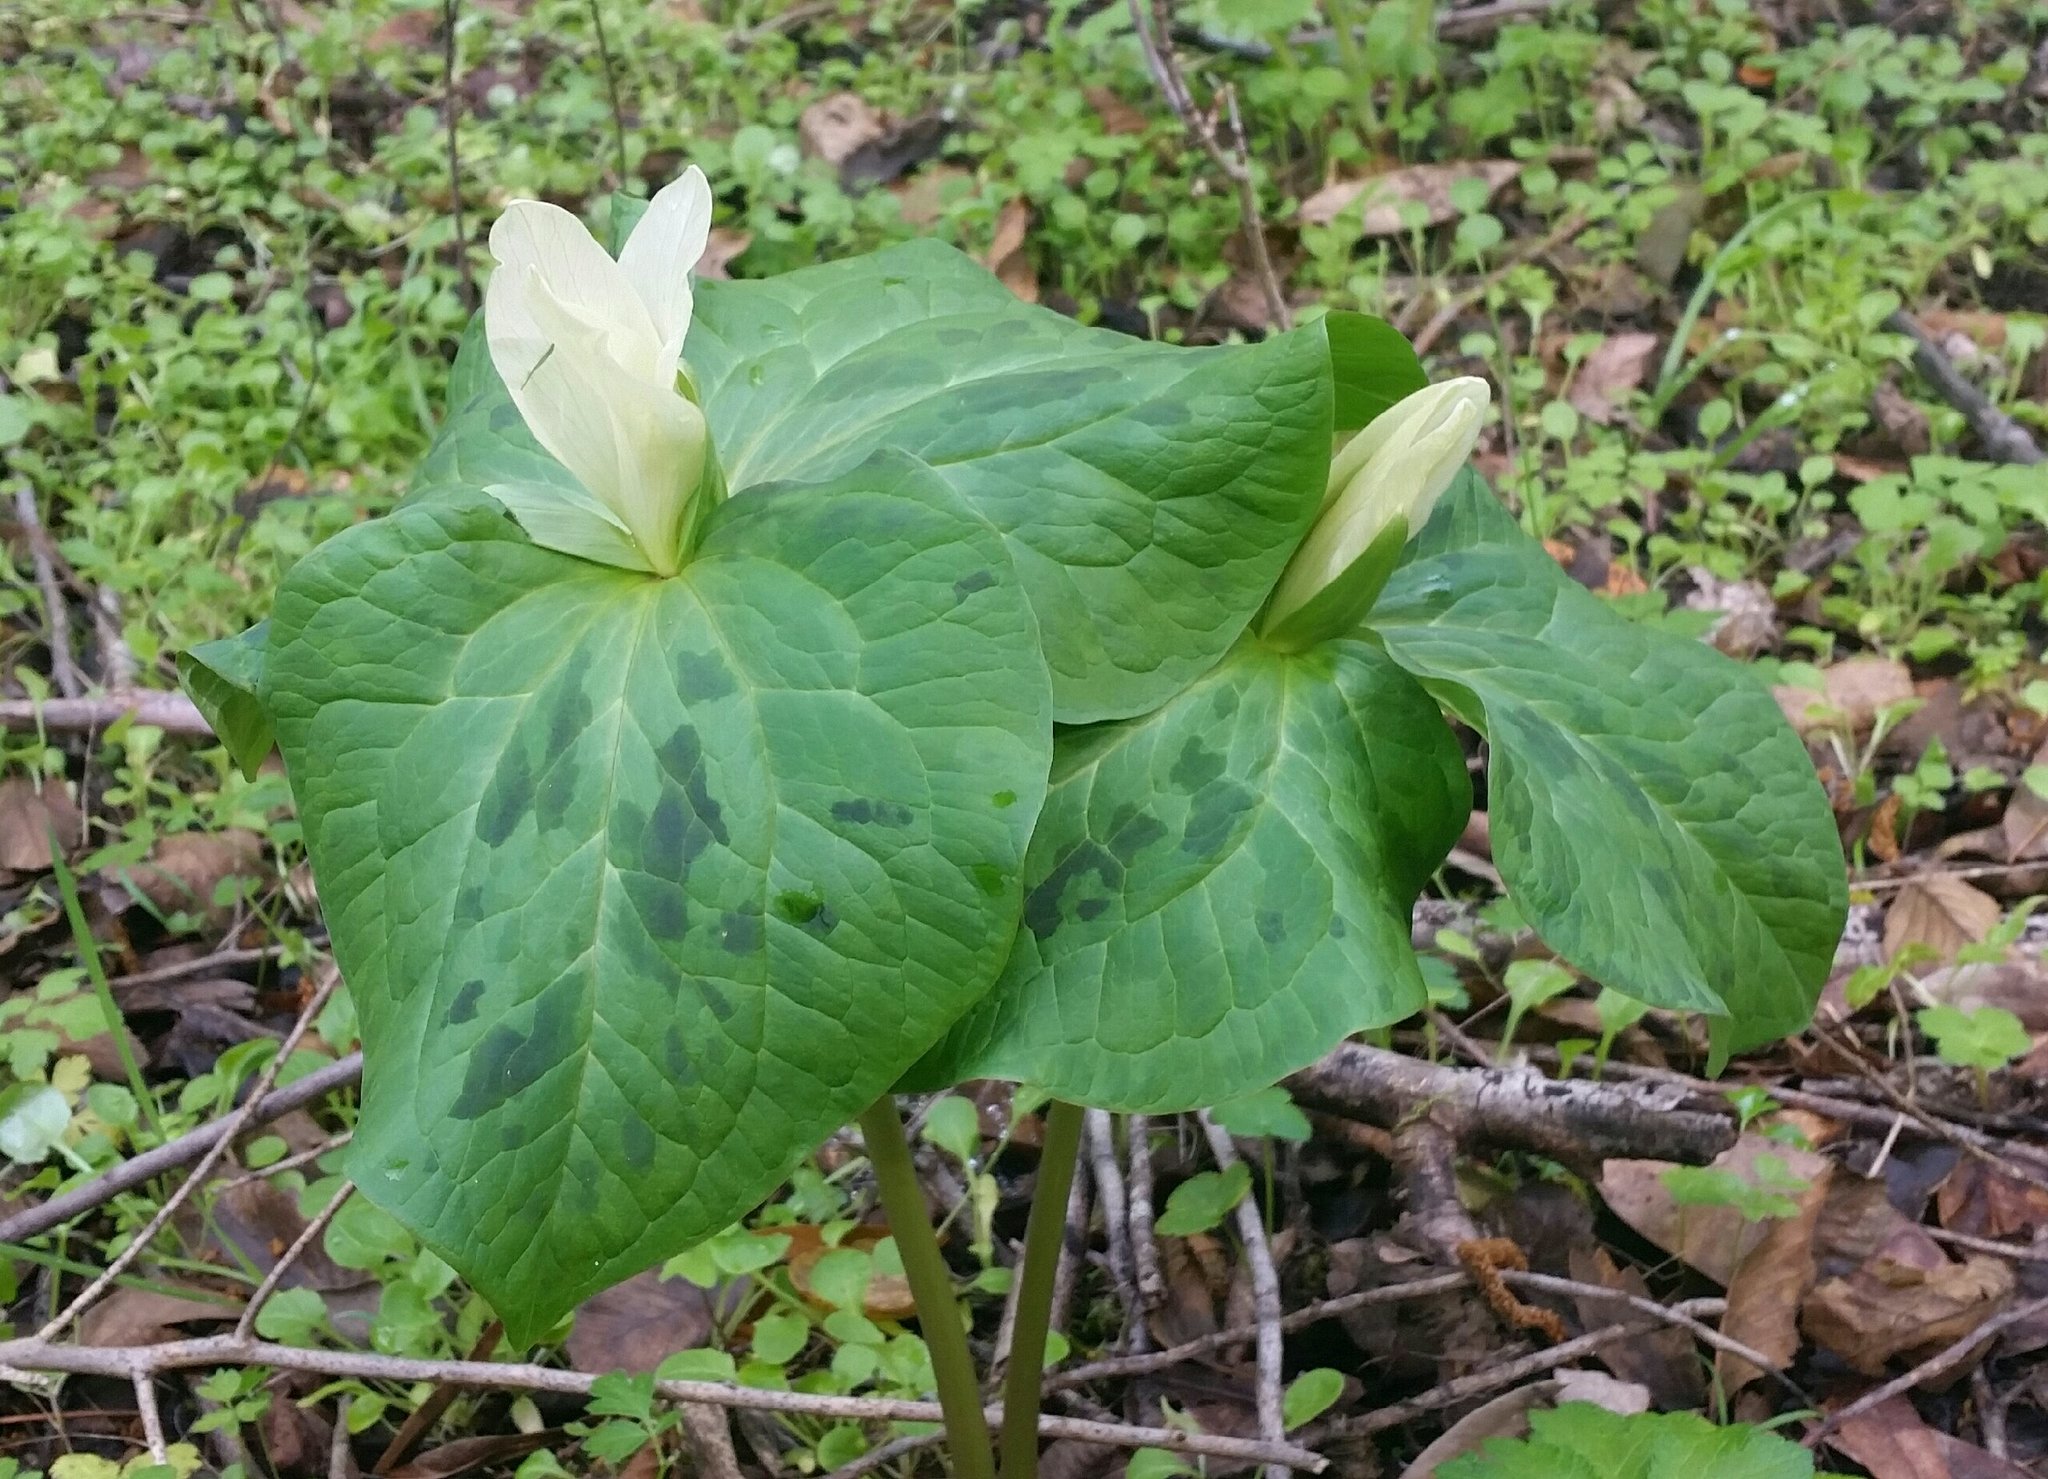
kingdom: Plantae
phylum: Tracheophyta
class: Liliopsida
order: Liliales
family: Melanthiaceae
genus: Trillium
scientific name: Trillium albidum
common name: Freeman's trillium
